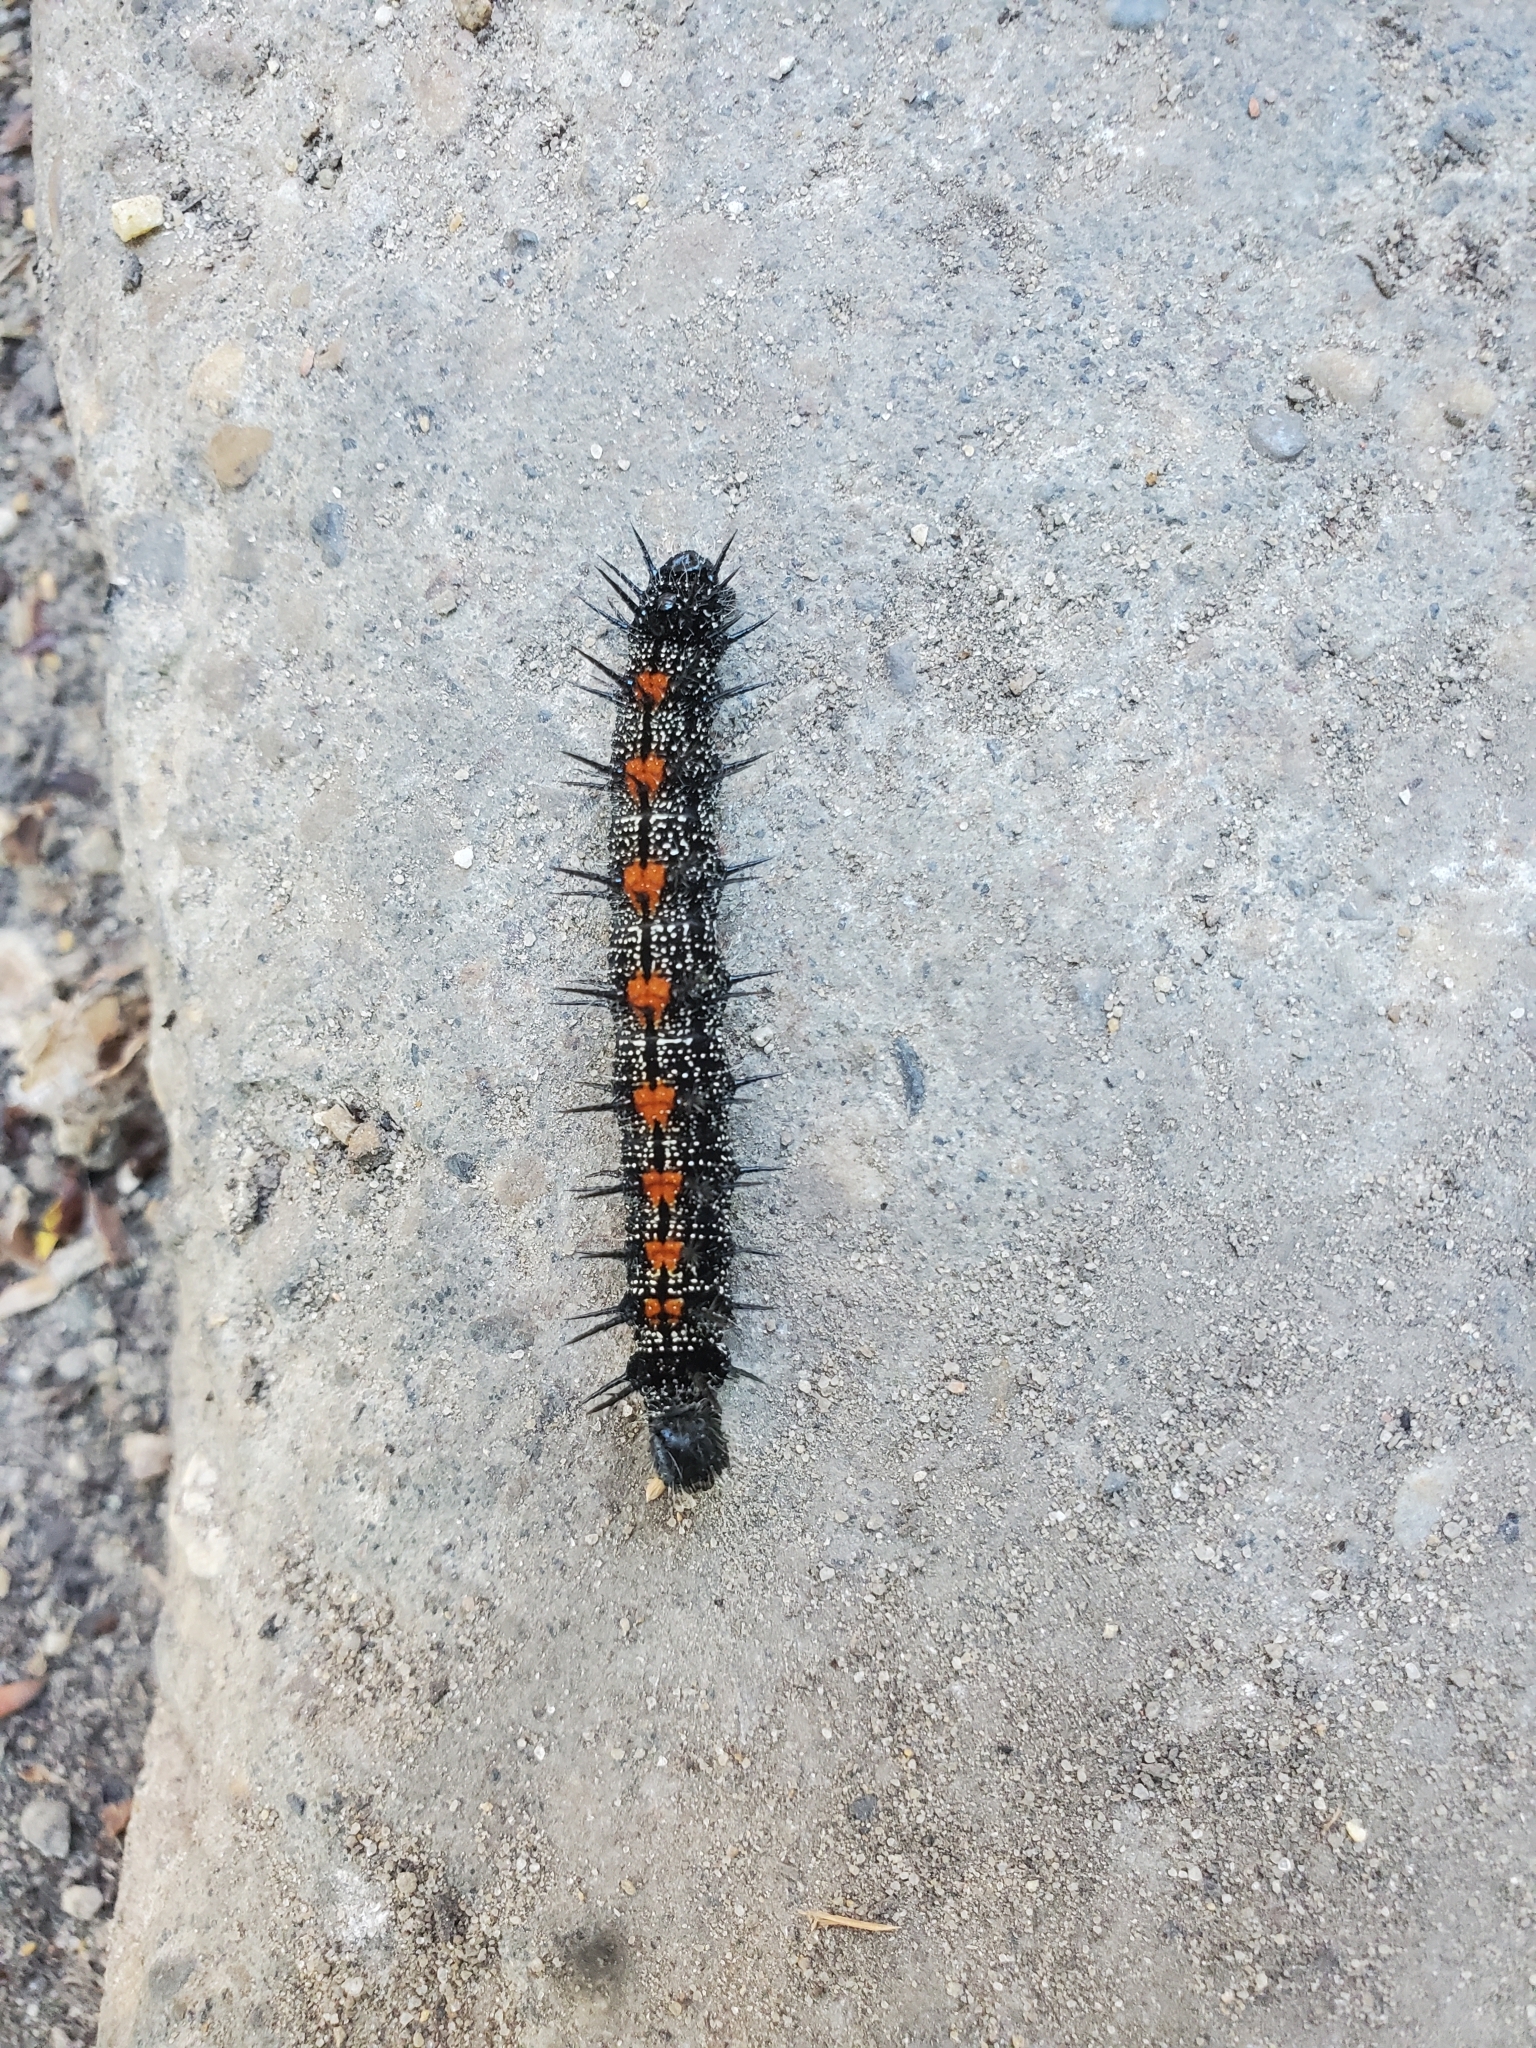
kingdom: Animalia
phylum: Arthropoda
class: Insecta
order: Lepidoptera
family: Nymphalidae
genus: Nymphalis
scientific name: Nymphalis antiopa
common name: Camberwell beauty
